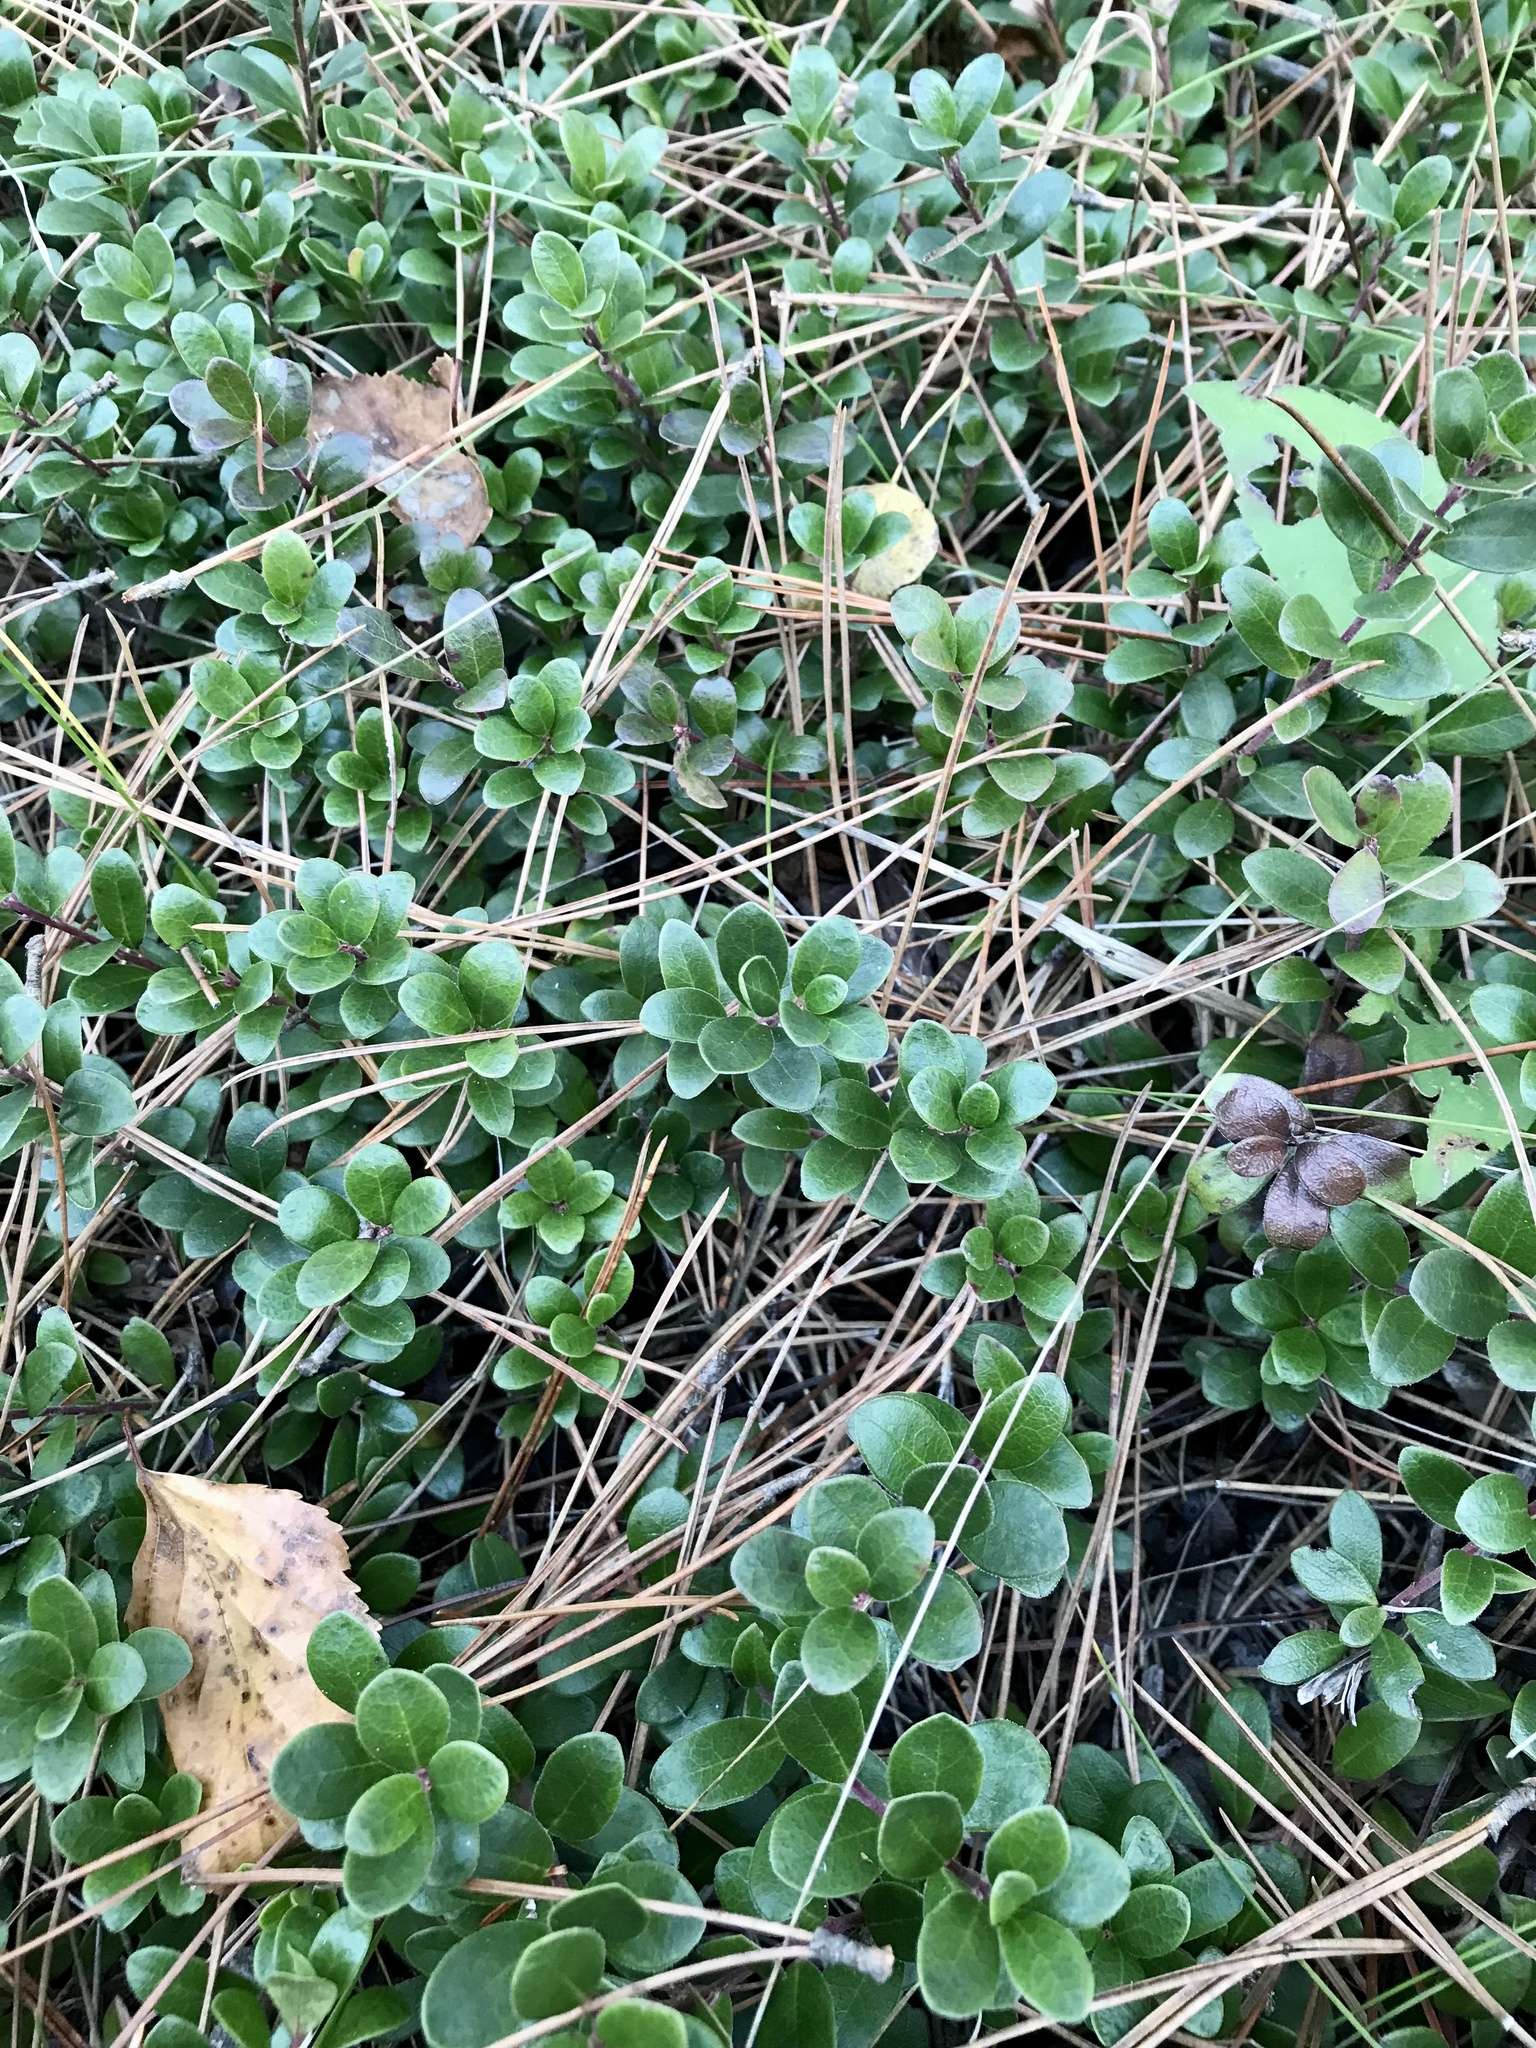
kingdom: Plantae
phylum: Tracheophyta
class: Magnoliopsida
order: Ericales
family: Ericaceae
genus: Arctostaphylos
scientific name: Arctostaphylos uva-ursi
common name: Bearberry
